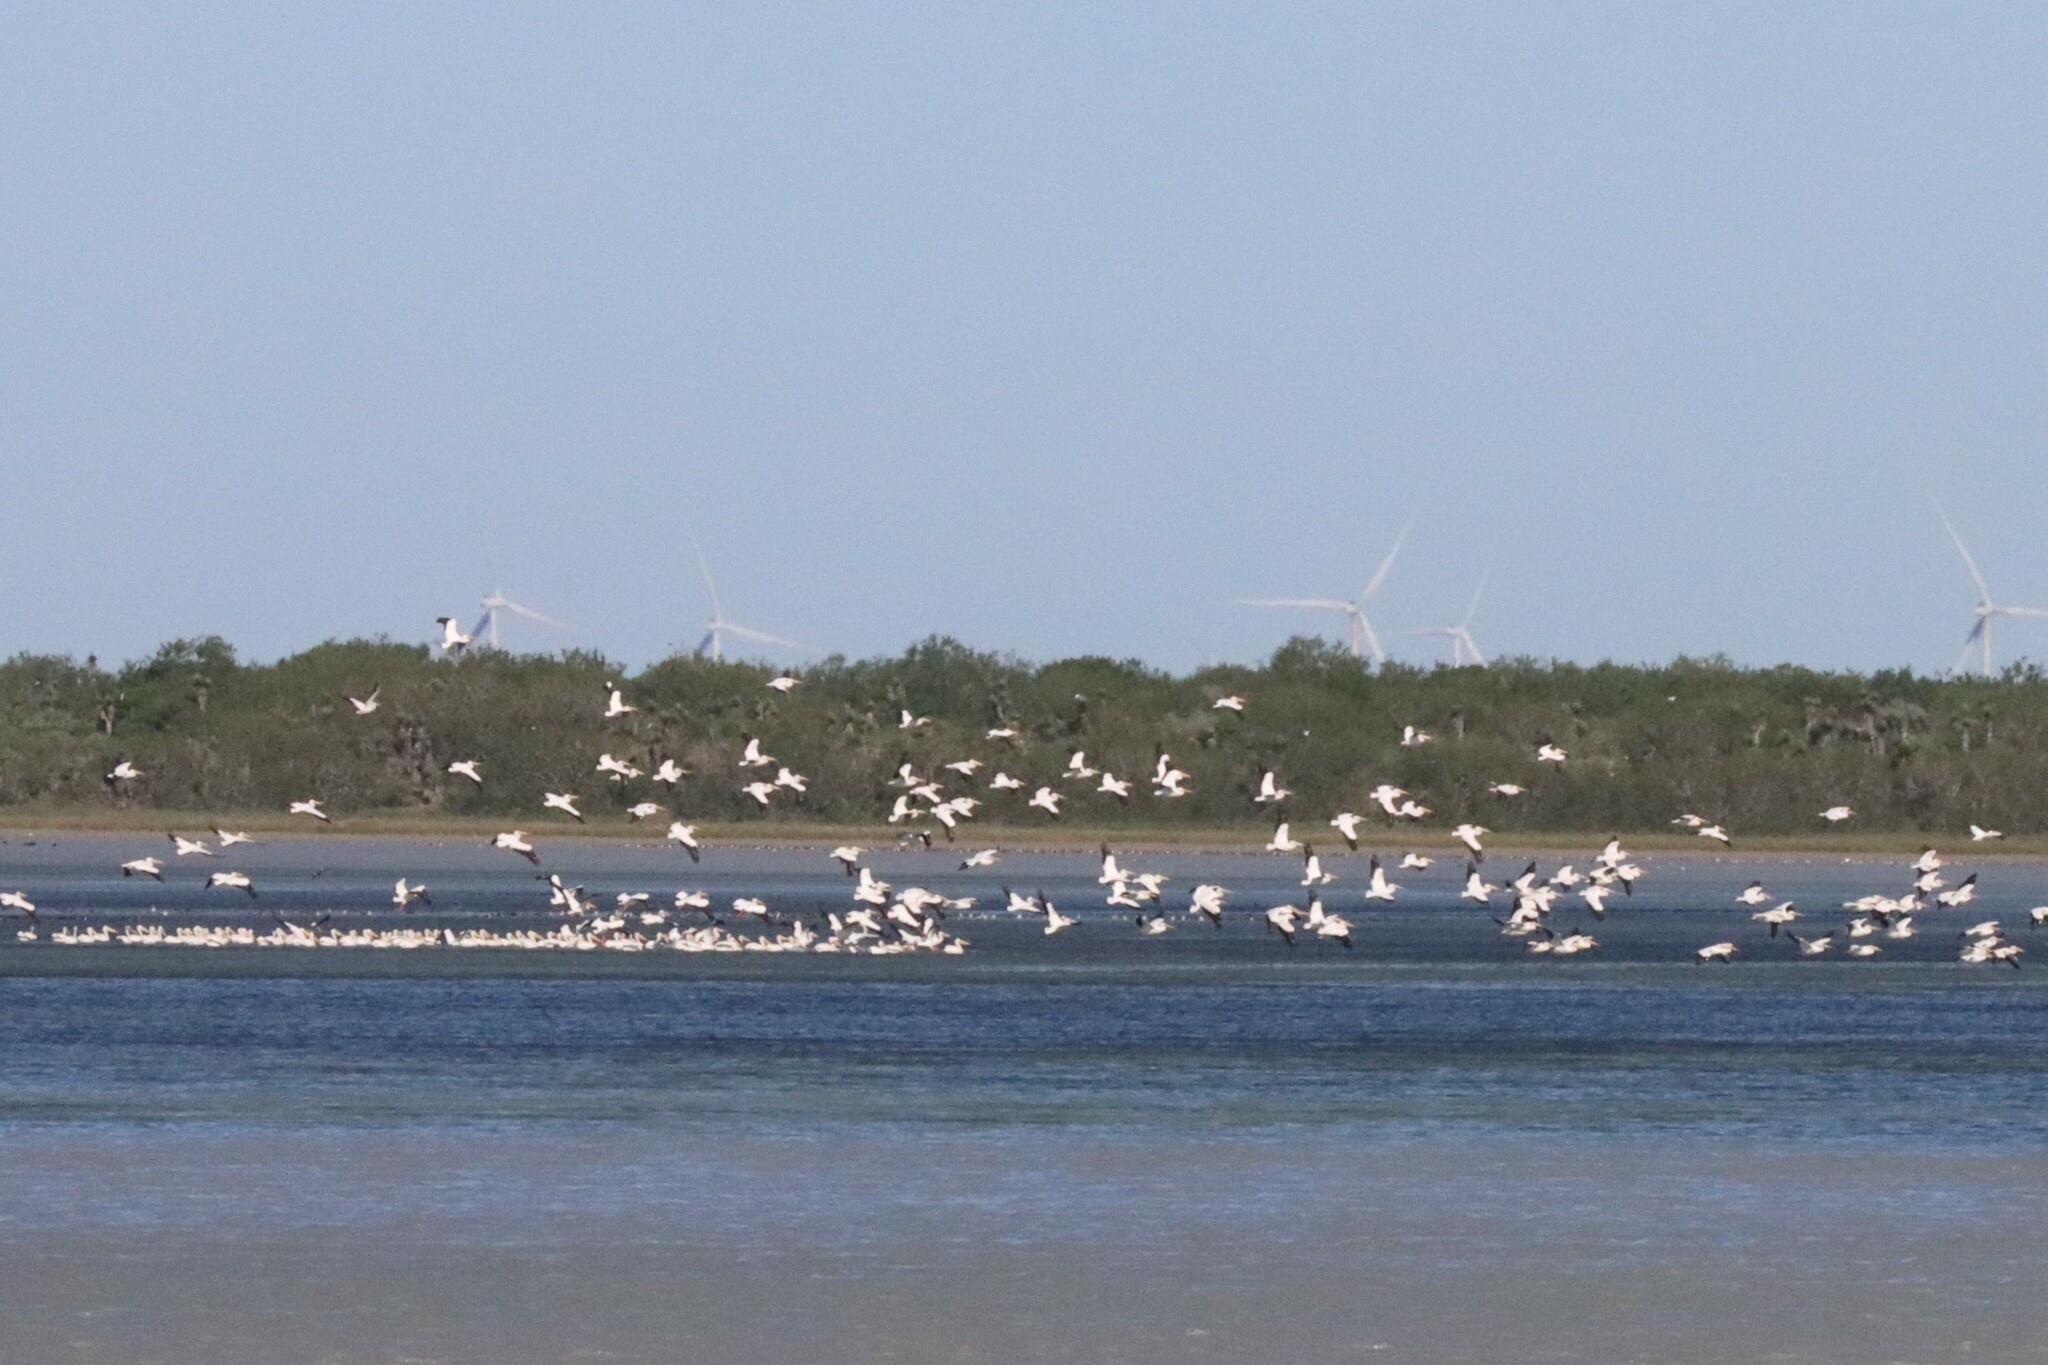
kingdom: Animalia
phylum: Chordata
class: Aves
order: Pelecaniformes
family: Pelecanidae
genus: Pelecanus
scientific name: Pelecanus erythrorhynchos
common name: American white pelican
